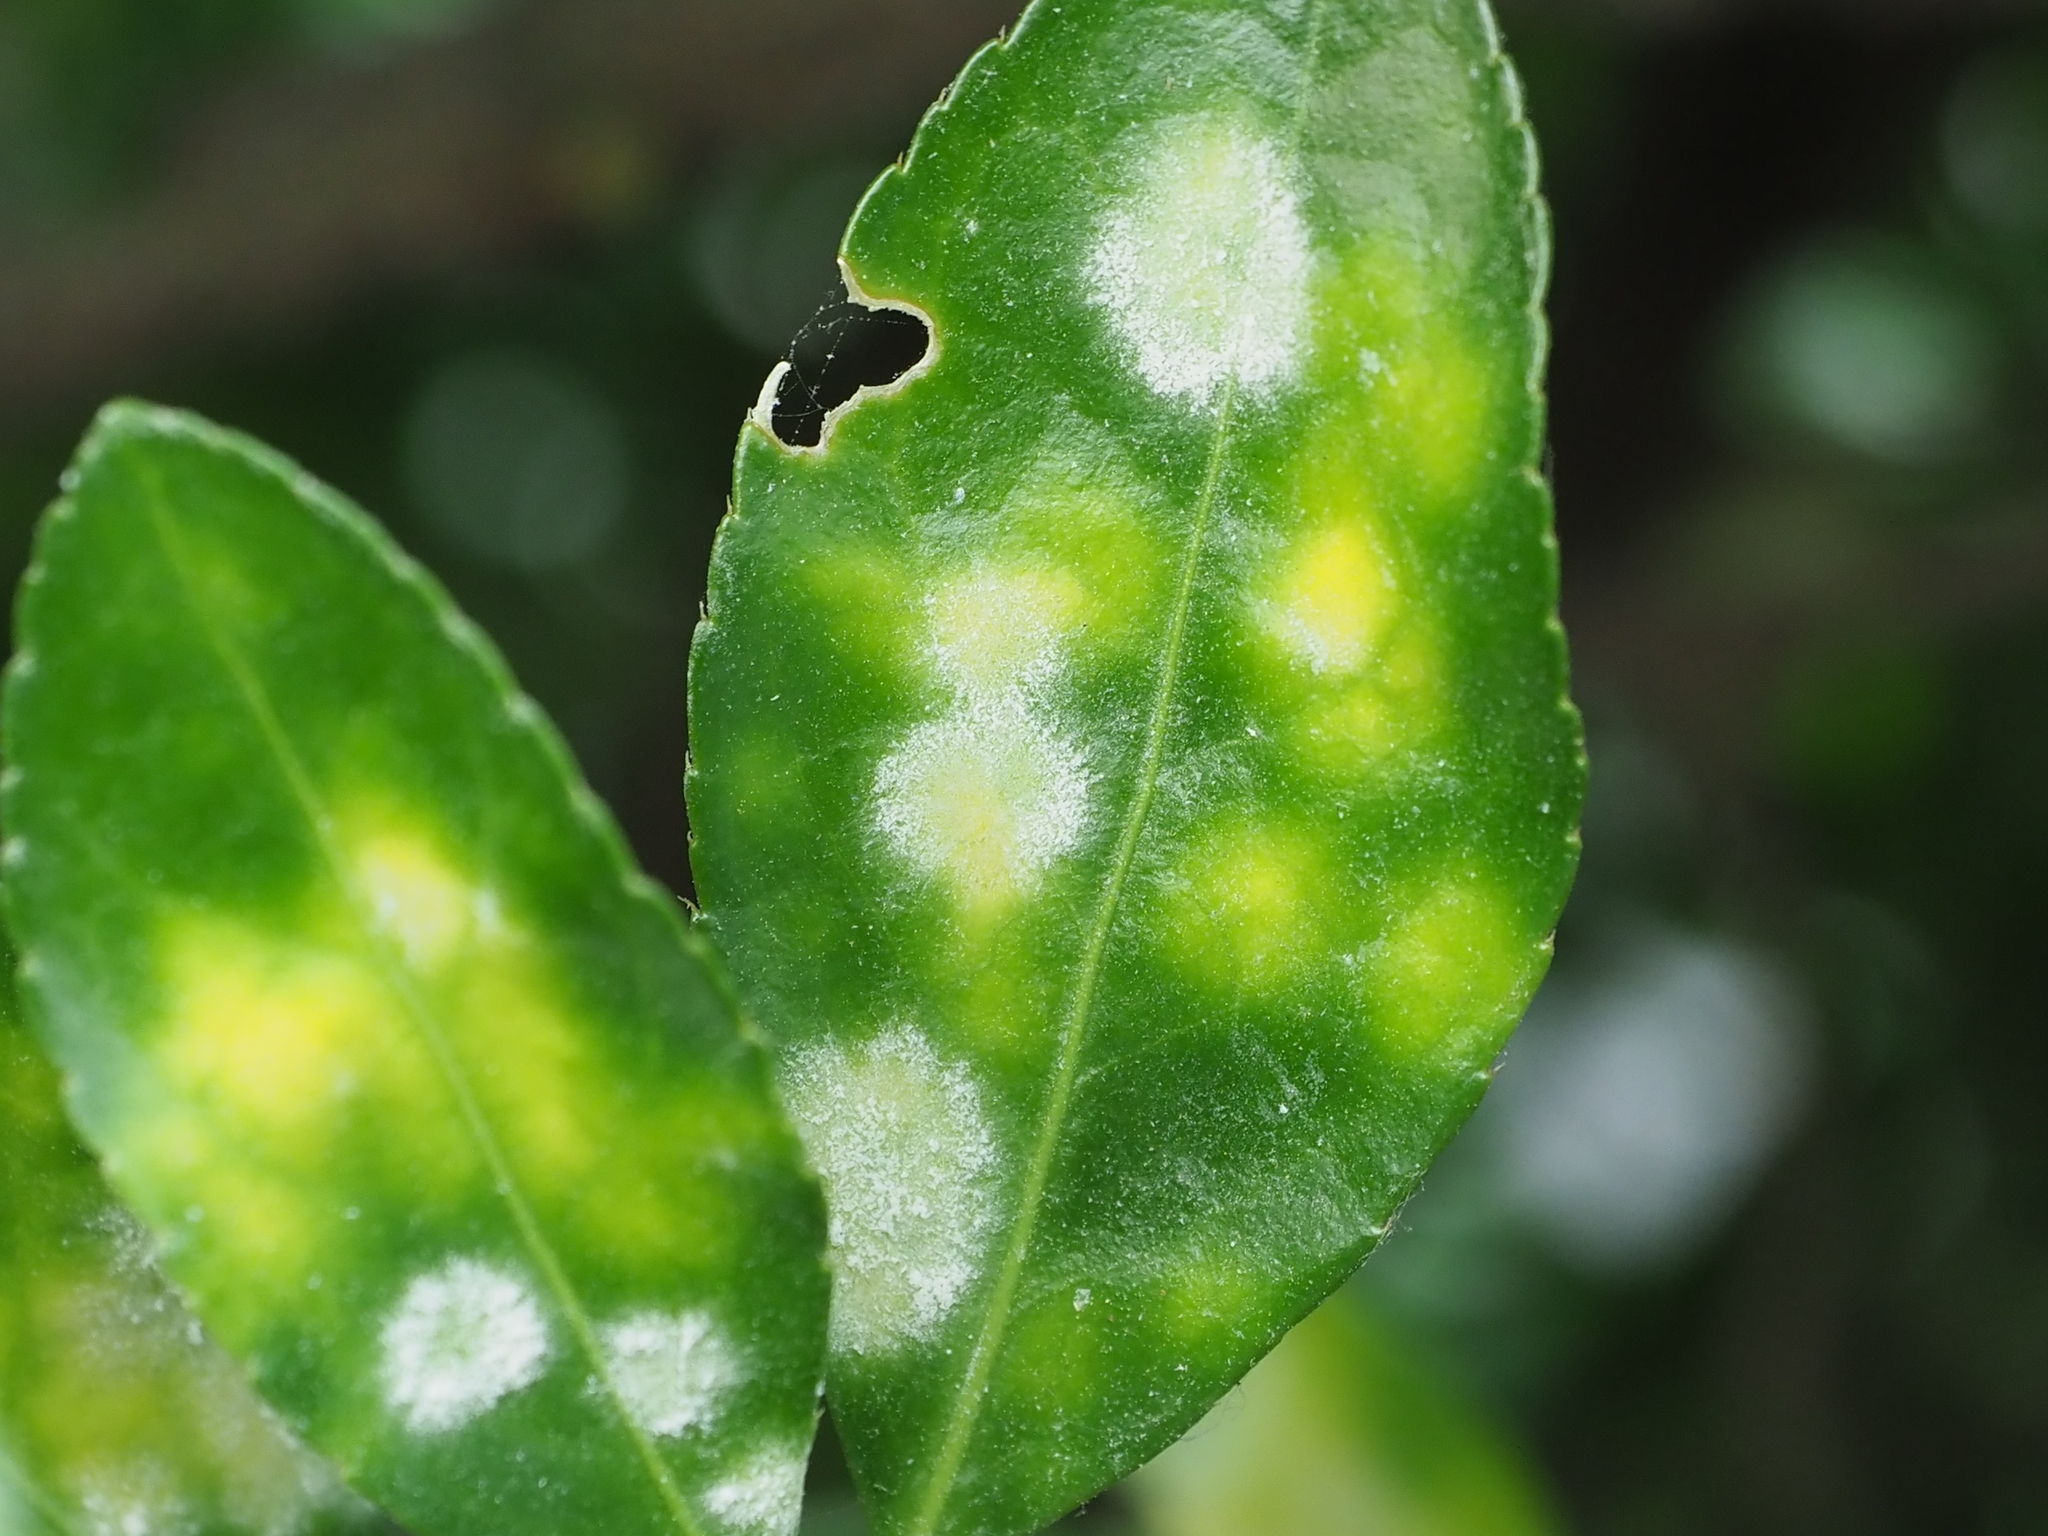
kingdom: Fungi
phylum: Ascomycota
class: Leotiomycetes
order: Helotiales
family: Erysiphaceae
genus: Erysiphe
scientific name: Erysiphe euonymicola
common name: Spindletree mildew
